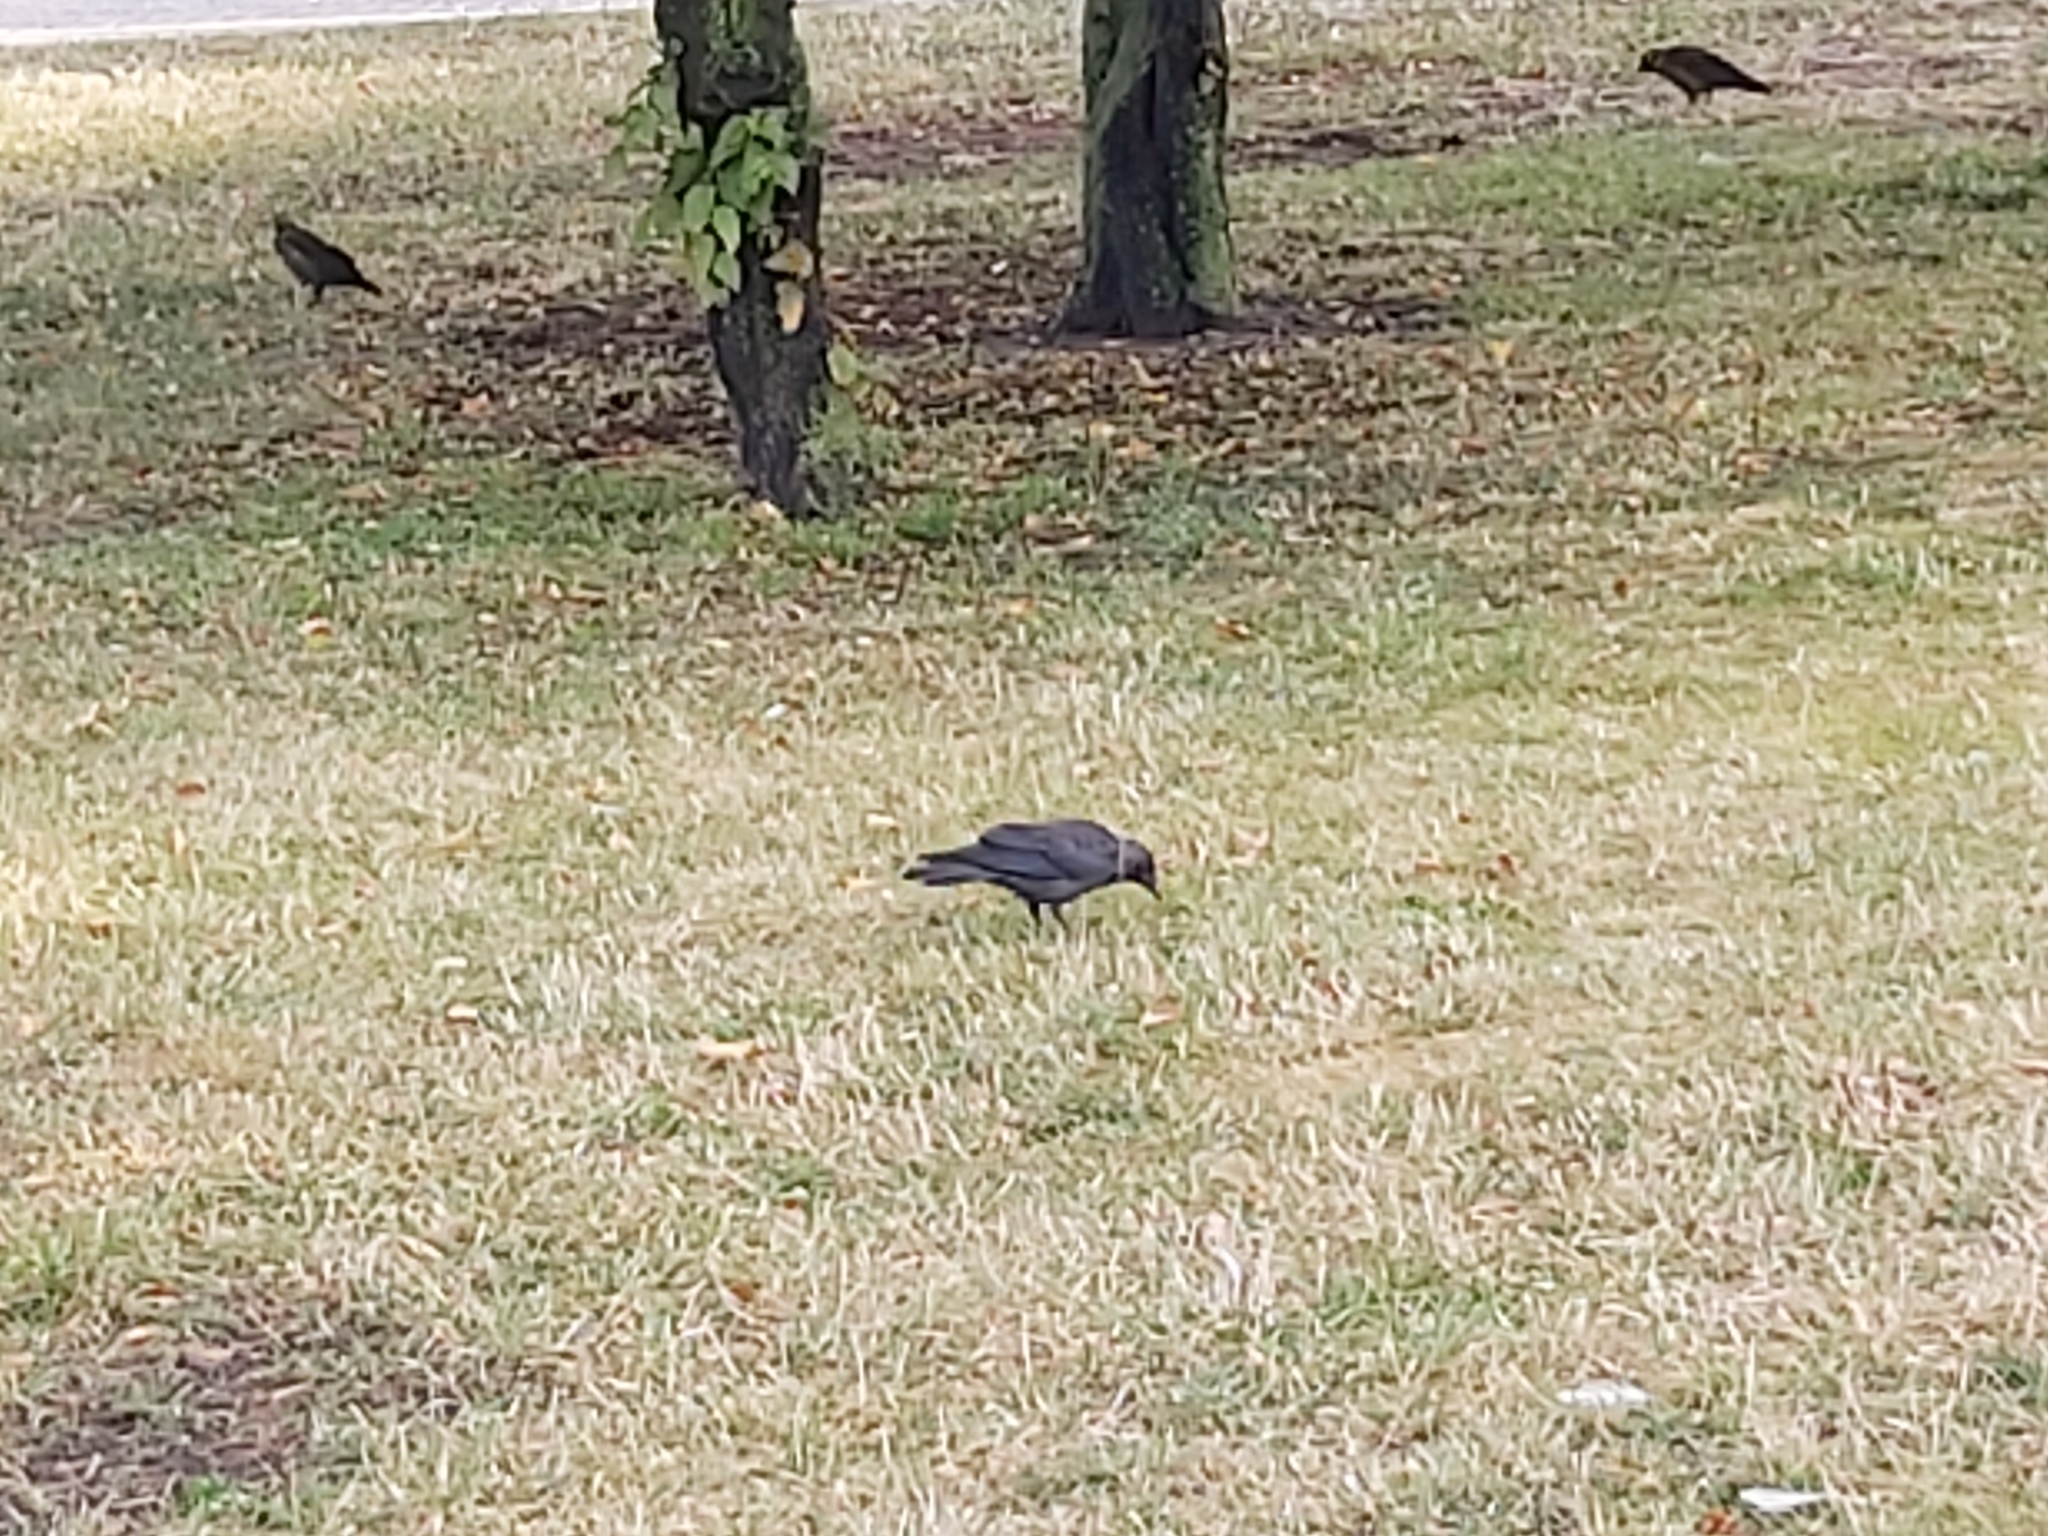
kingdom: Animalia
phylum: Chordata
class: Aves
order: Passeriformes
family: Corvidae
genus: Coloeus
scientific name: Coloeus monedula
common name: Western jackdaw
